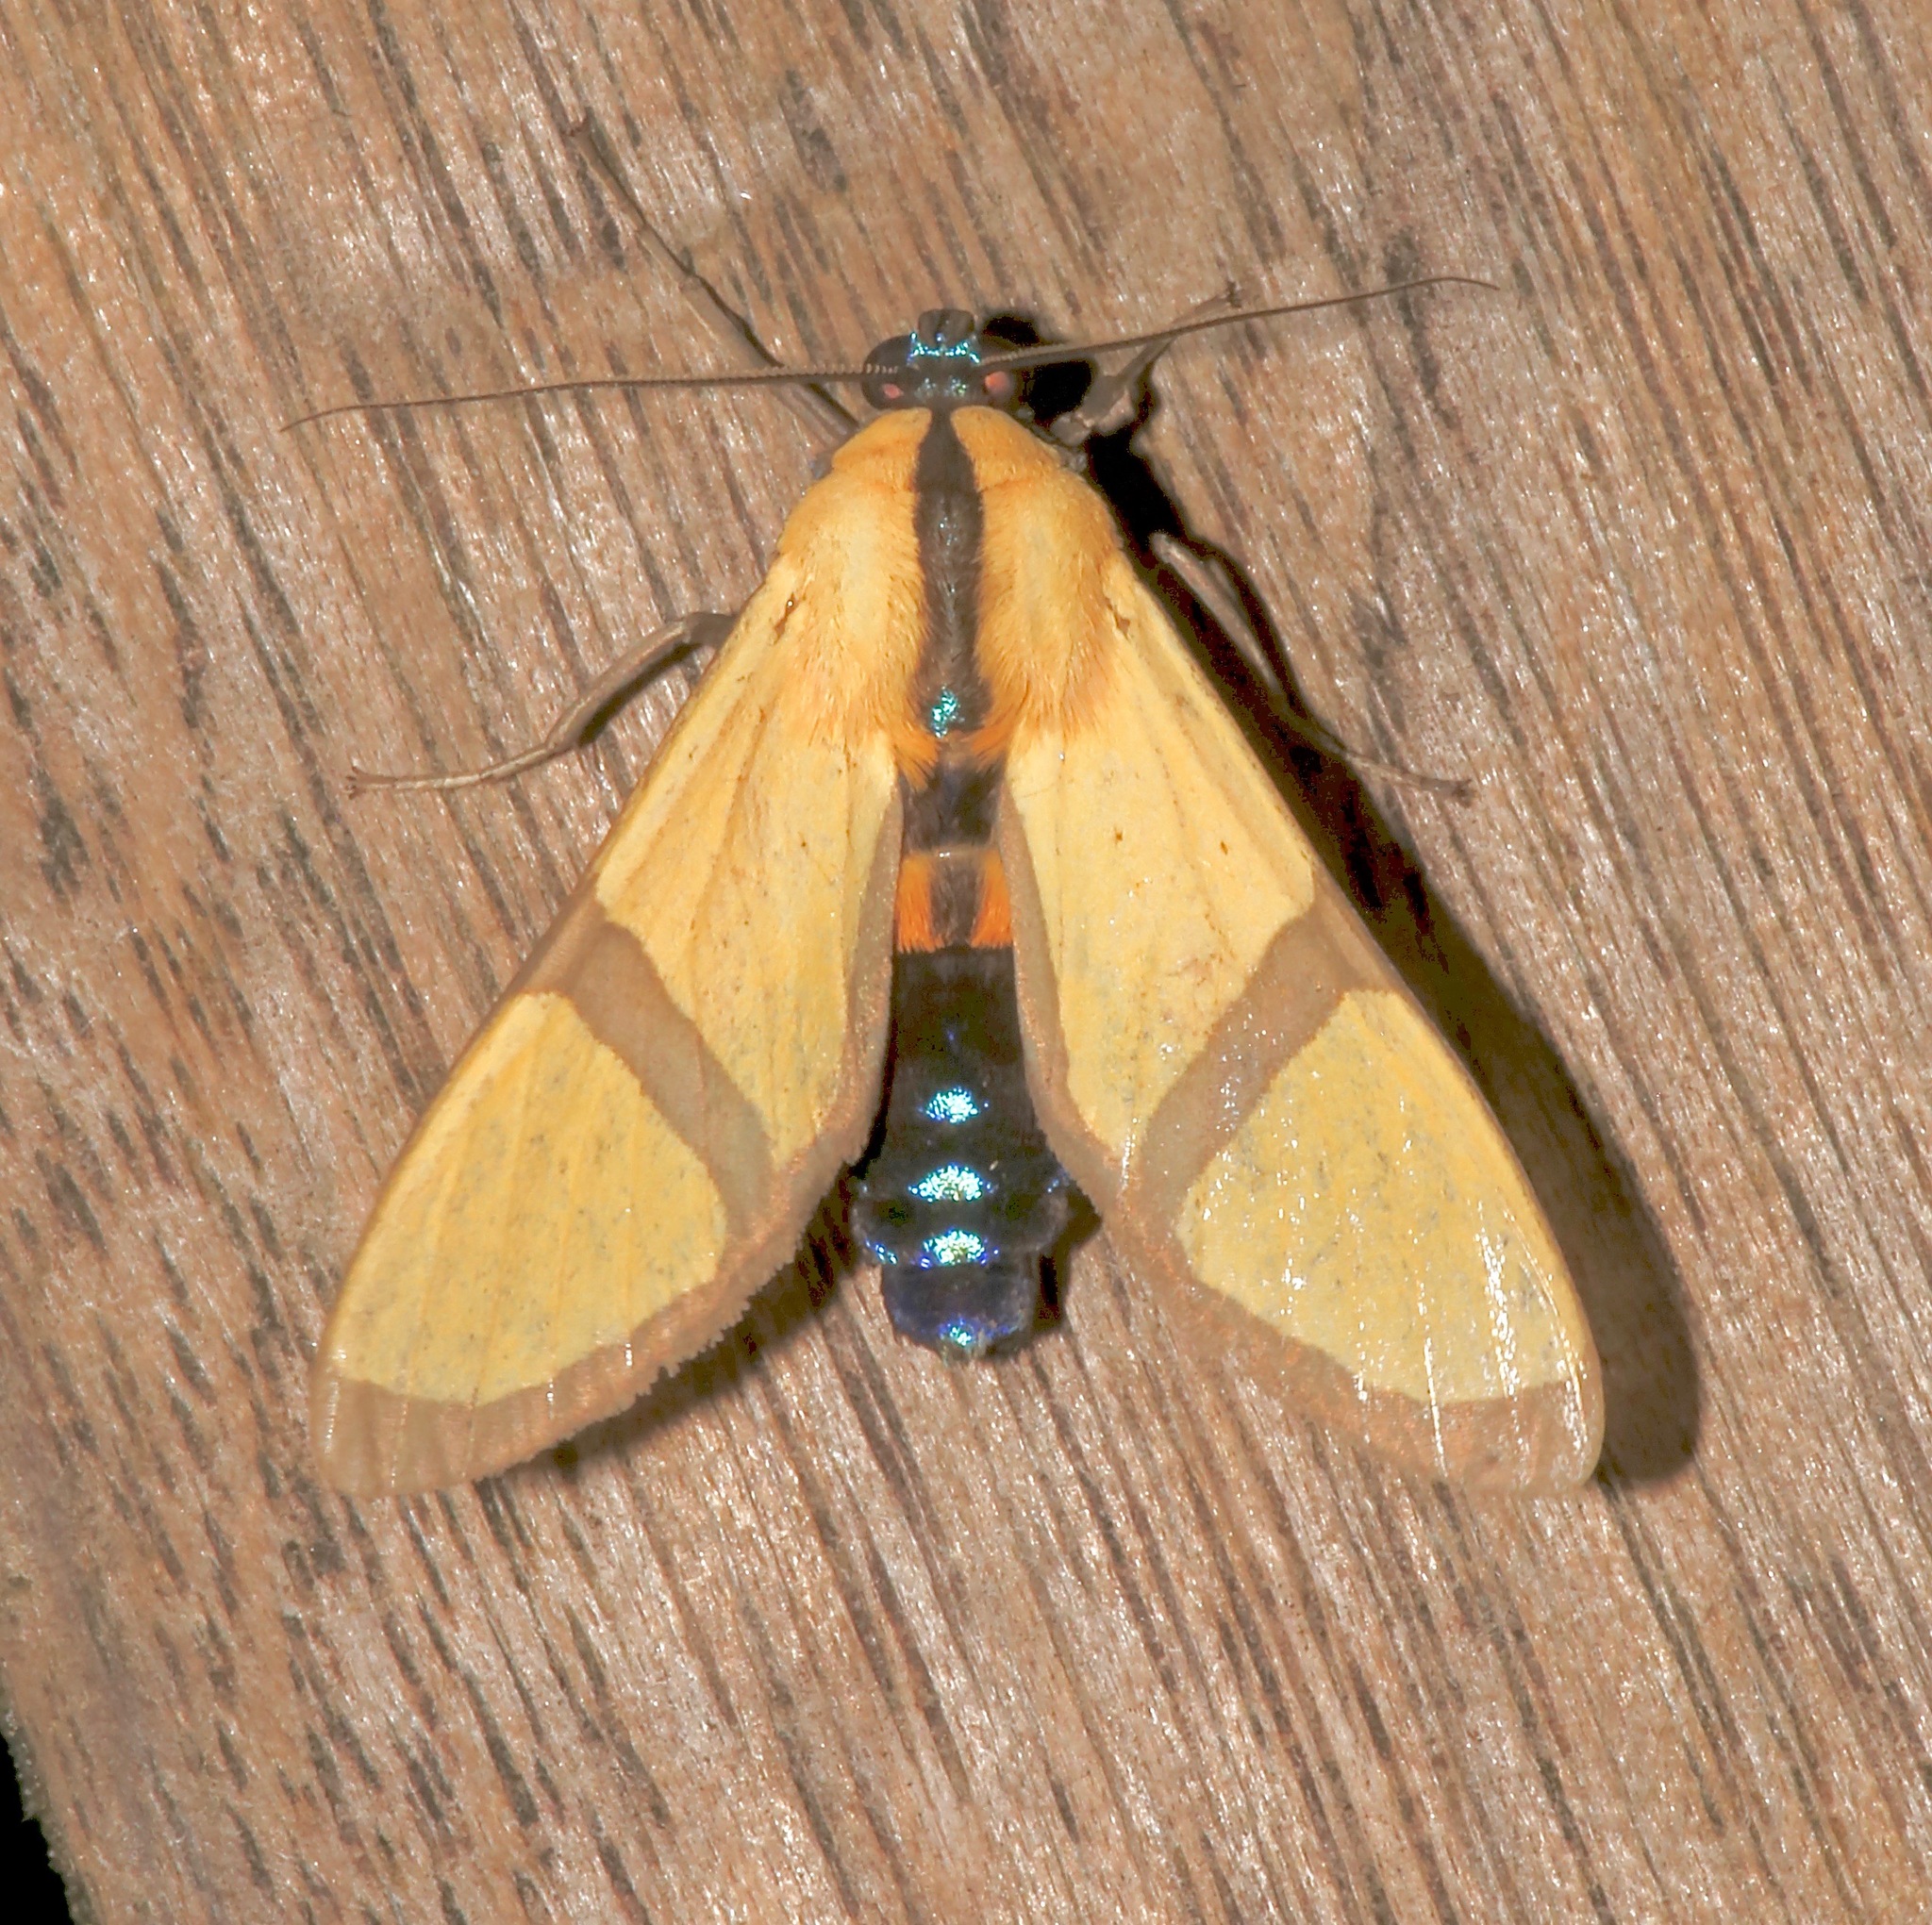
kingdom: Animalia
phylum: Arthropoda
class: Insecta
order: Lepidoptera
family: Erebidae
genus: Ormetica
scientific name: Ormetica ameoides
